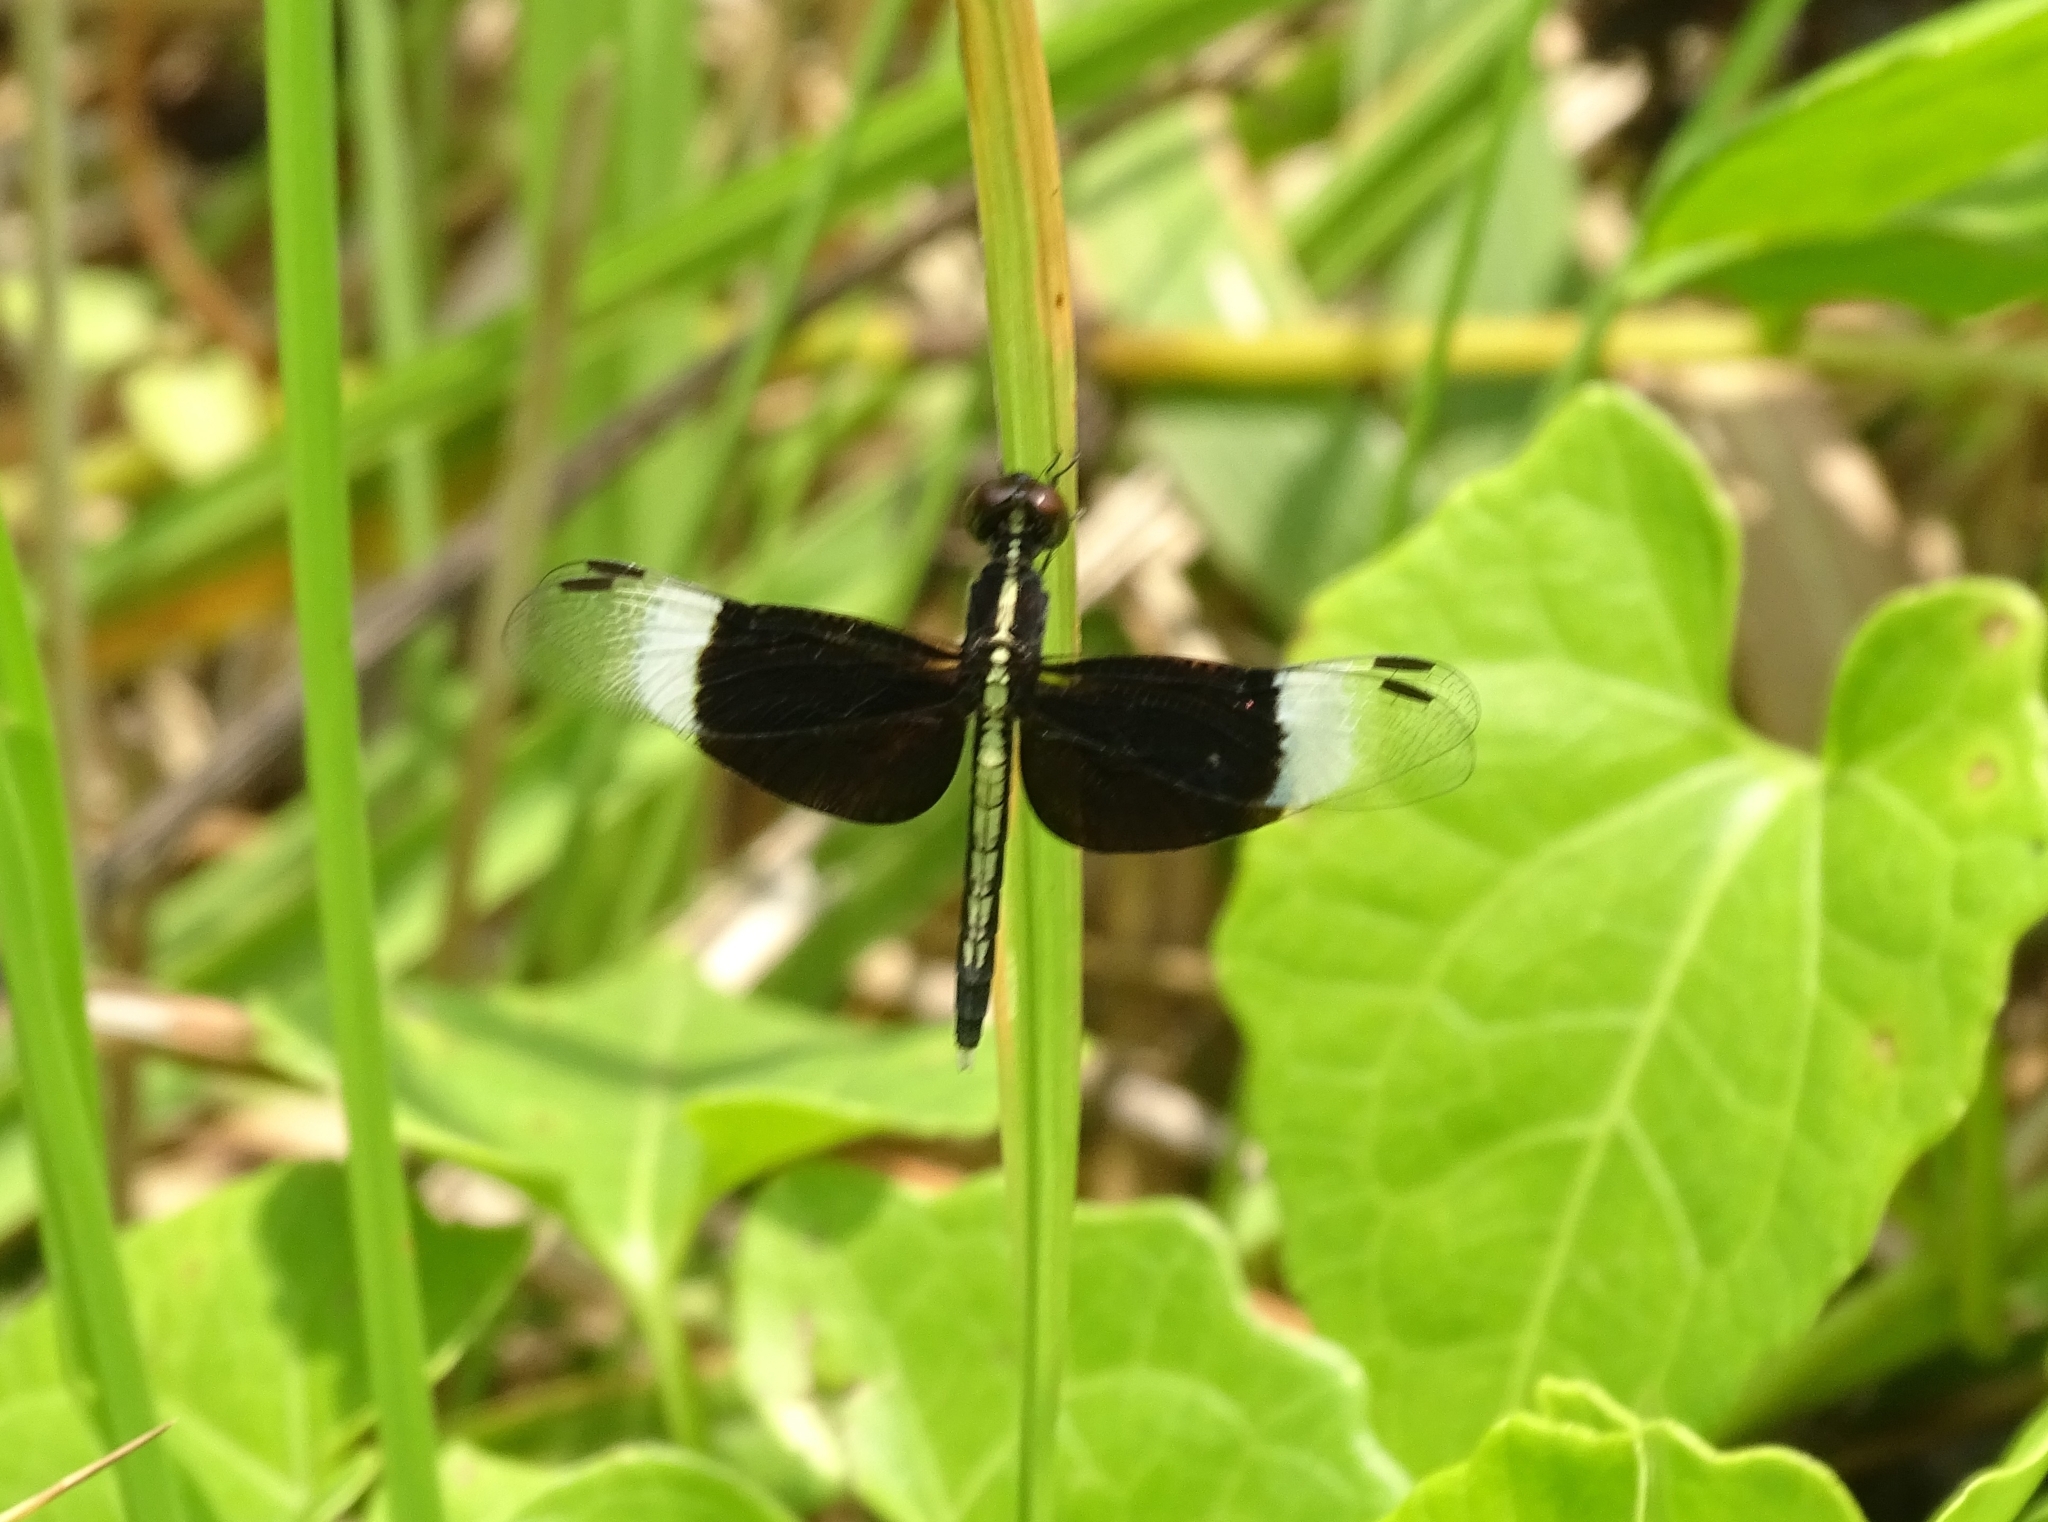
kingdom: Animalia
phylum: Arthropoda
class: Insecta
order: Odonata
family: Libellulidae
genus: Neurothemis
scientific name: Neurothemis tullia
